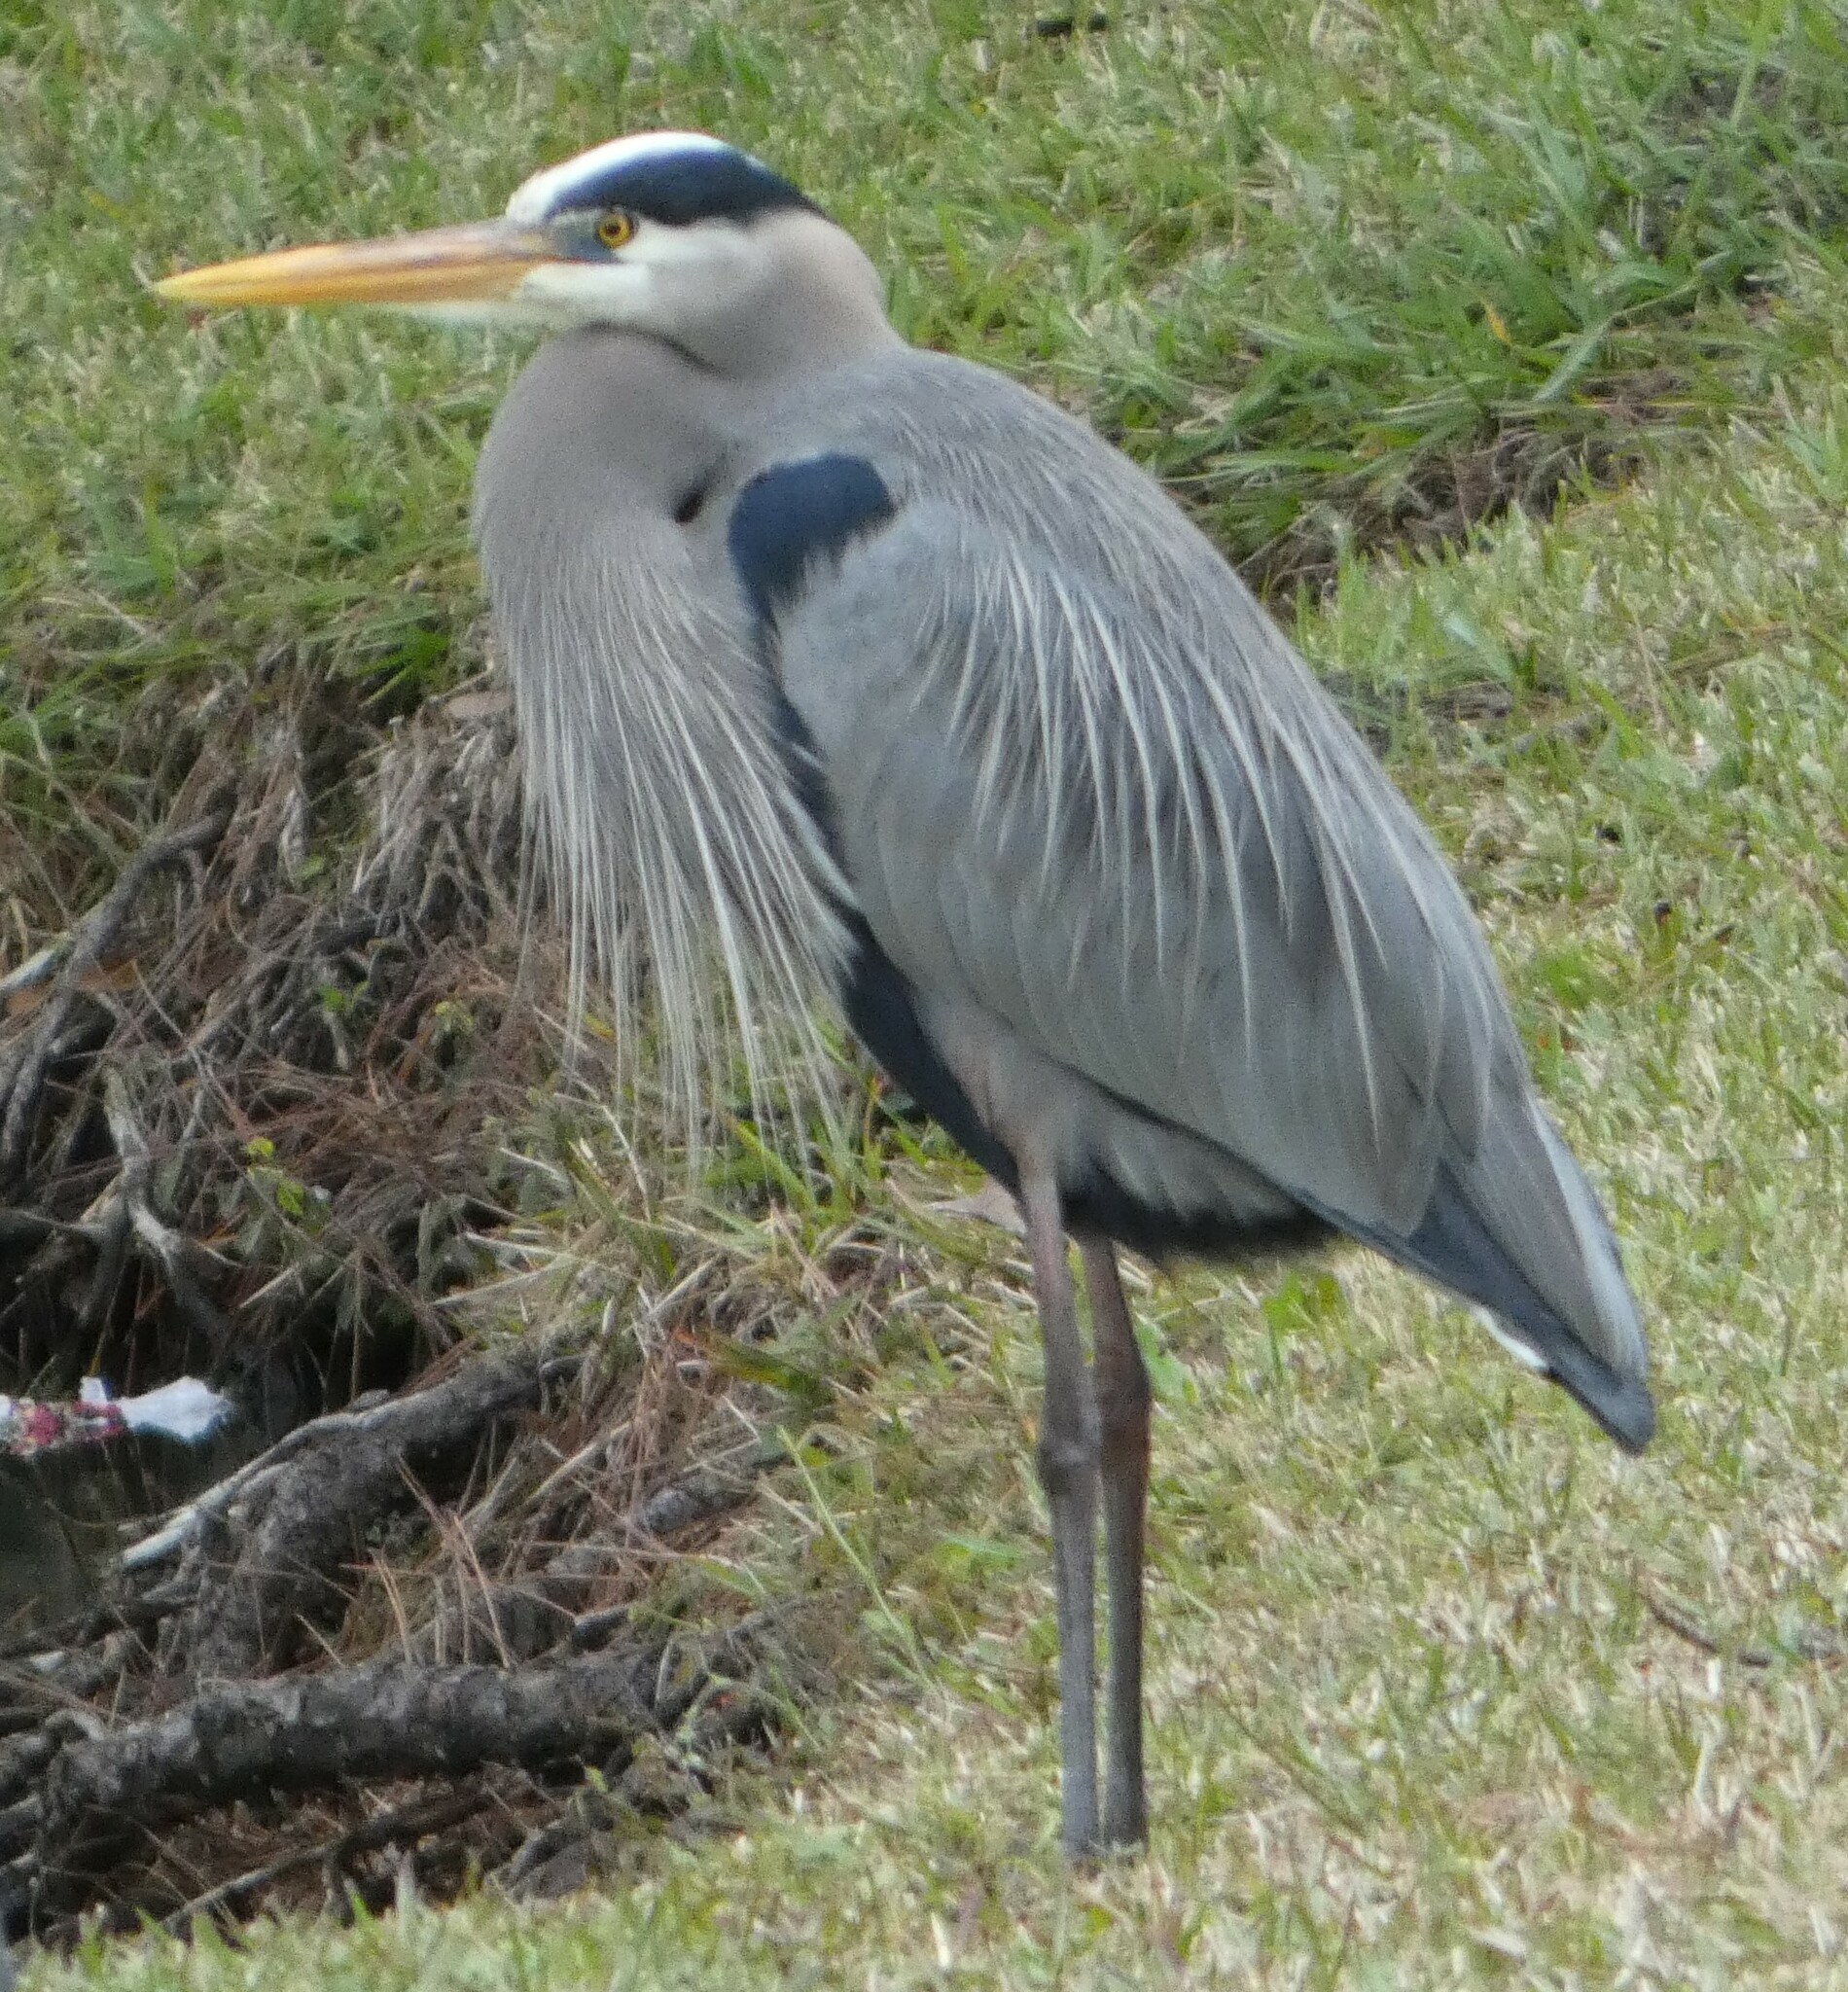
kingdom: Animalia
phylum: Chordata
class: Aves
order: Pelecaniformes
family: Ardeidae
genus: Ardea
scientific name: Ardea herodias
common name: Great blue heron
